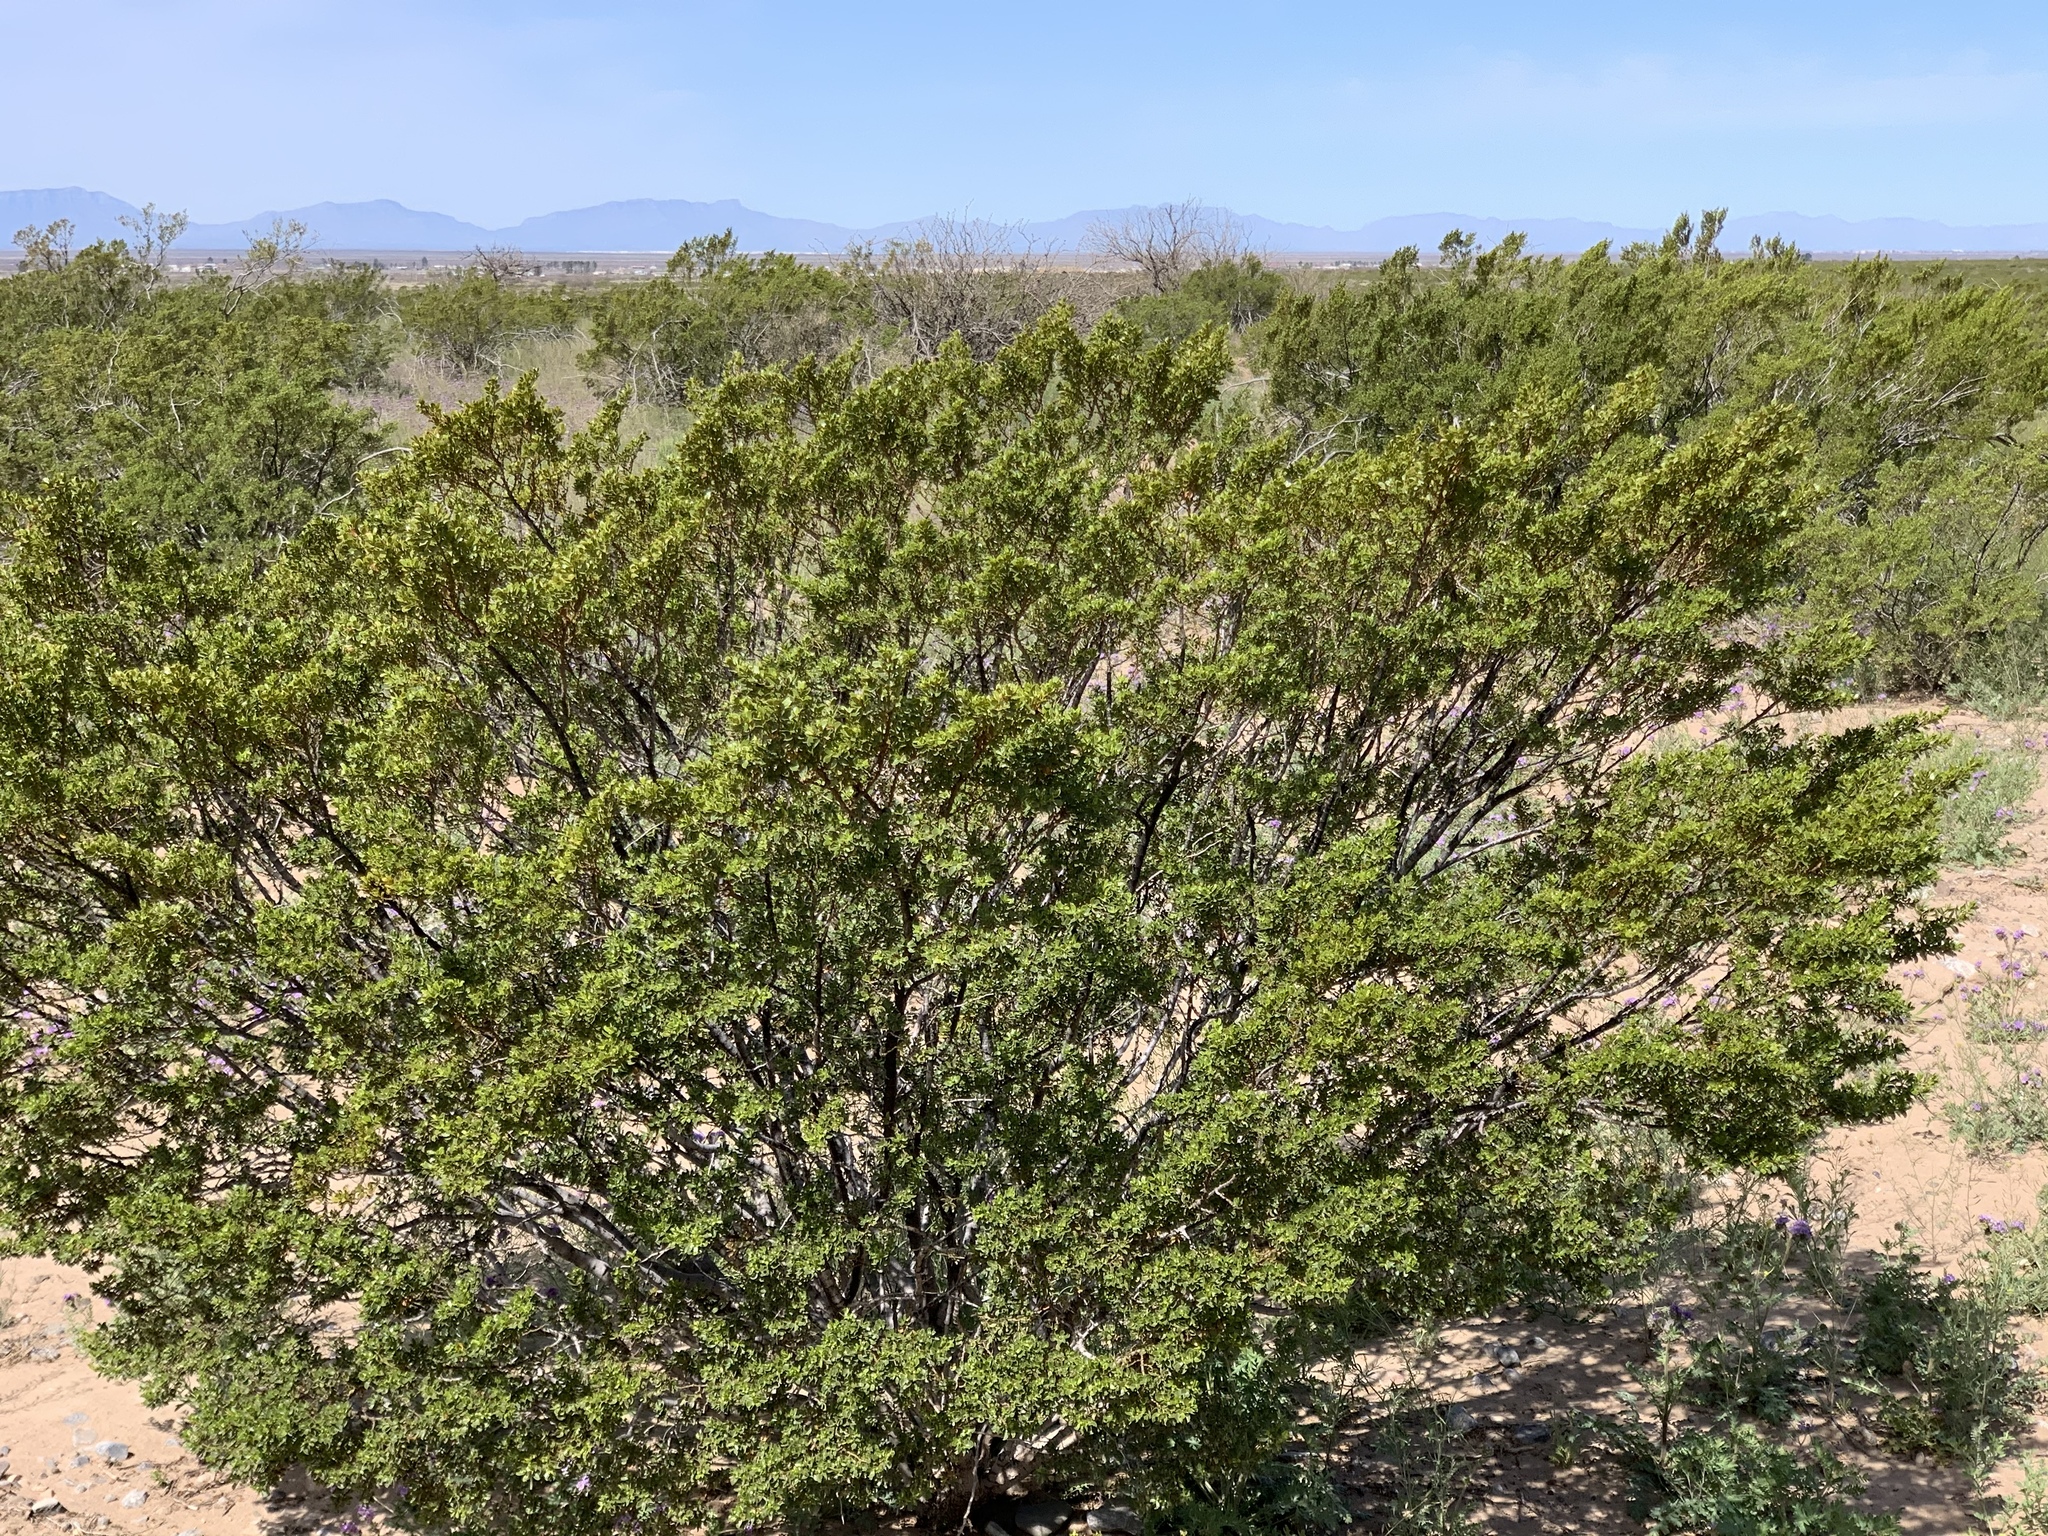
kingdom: Plantae
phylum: Tracheophyta
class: Magnoliopsida
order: Zygophyllales
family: Zygophyllaceae
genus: Larrea
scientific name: Larrea tridentata
